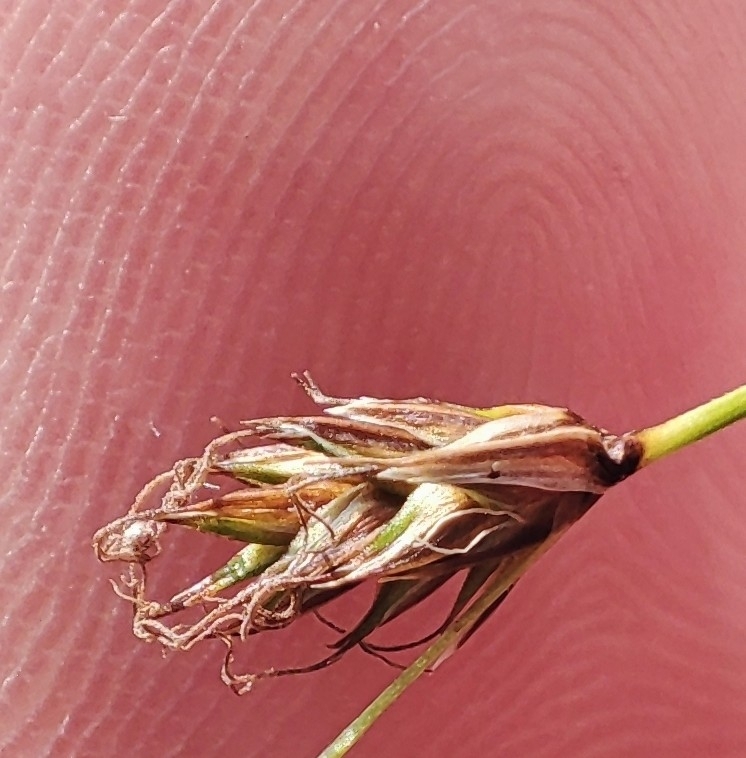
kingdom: Plantae
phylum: Tracheophyta
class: Liliopsida
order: Poales
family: Cyperaceae
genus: Carex
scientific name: Carex praecox
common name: Early sedge
